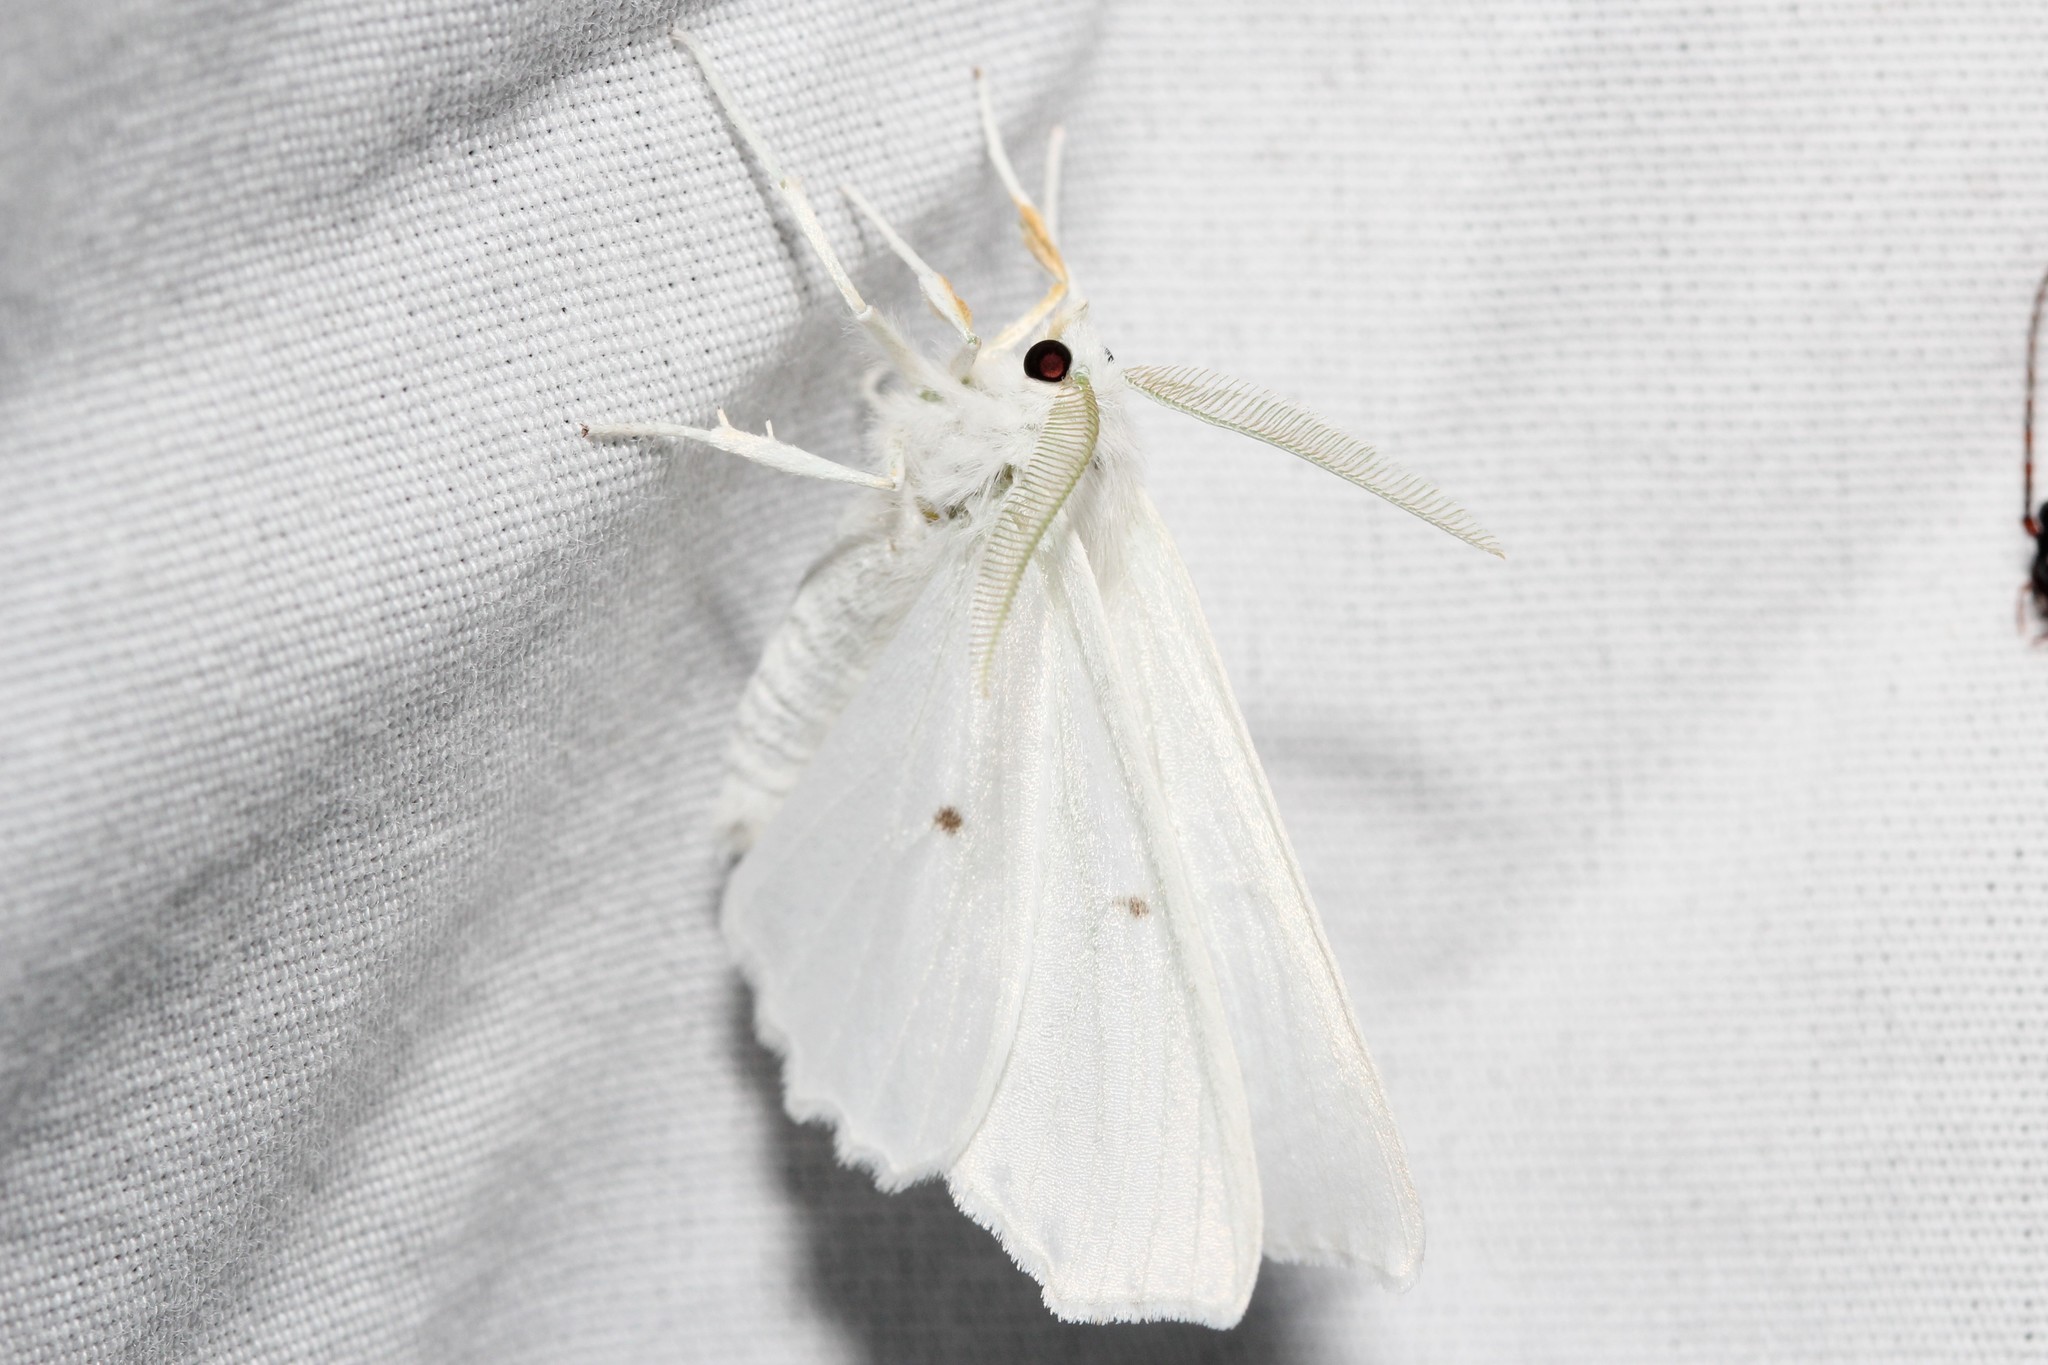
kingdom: Animalia
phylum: Arthropoda
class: Insecta
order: Lepidoptera
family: Geometridae
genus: Ennomos
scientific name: Ennomos subsignaria
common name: Elm spanworm
